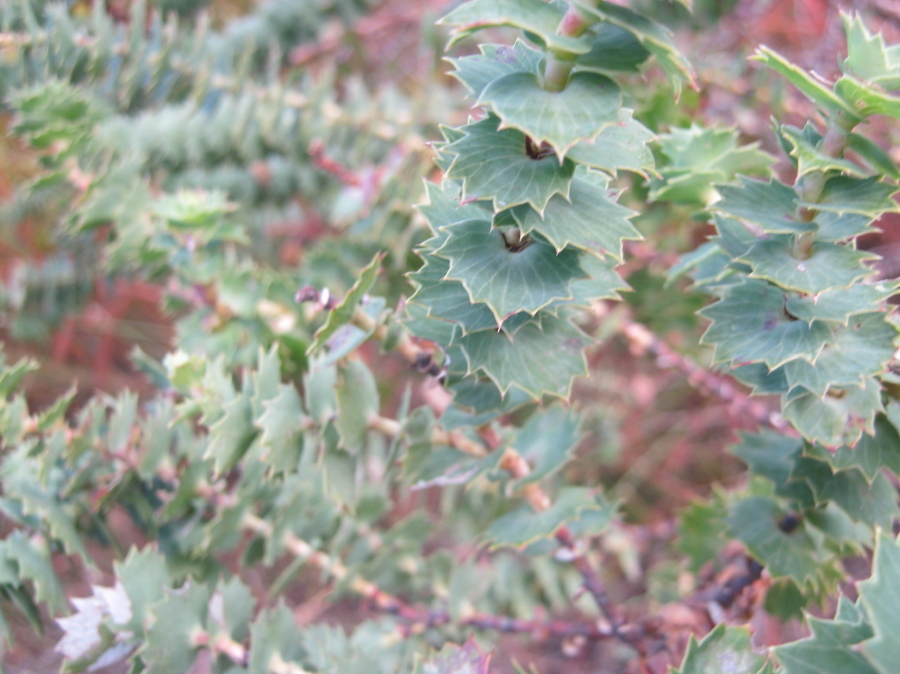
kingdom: Plantae
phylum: Tracheophyta
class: Magnoliopsida
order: Rosales
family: Rosaceae
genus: Cliffortia
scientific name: Cliffortia reniformis
